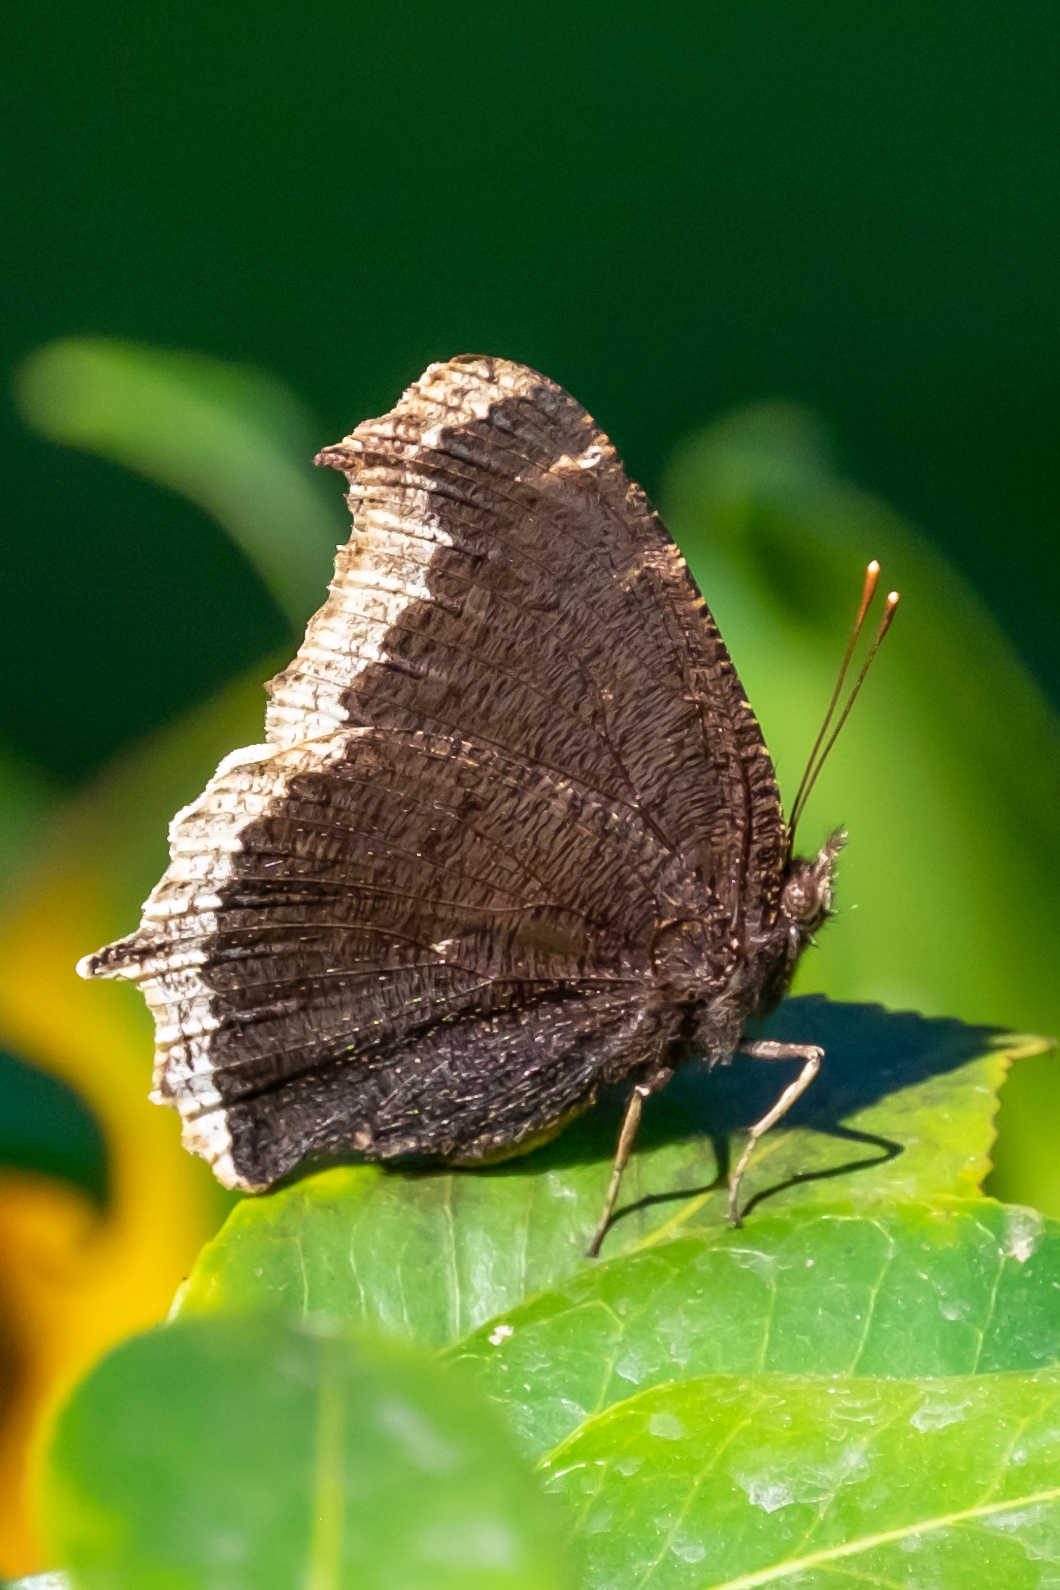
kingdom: Animalia
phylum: Arthropoda
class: Insecta
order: Lepidoptera
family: Nymphalidae
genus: Nymphalis
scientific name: Nymphalis antiopa
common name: Camberwell beauty
